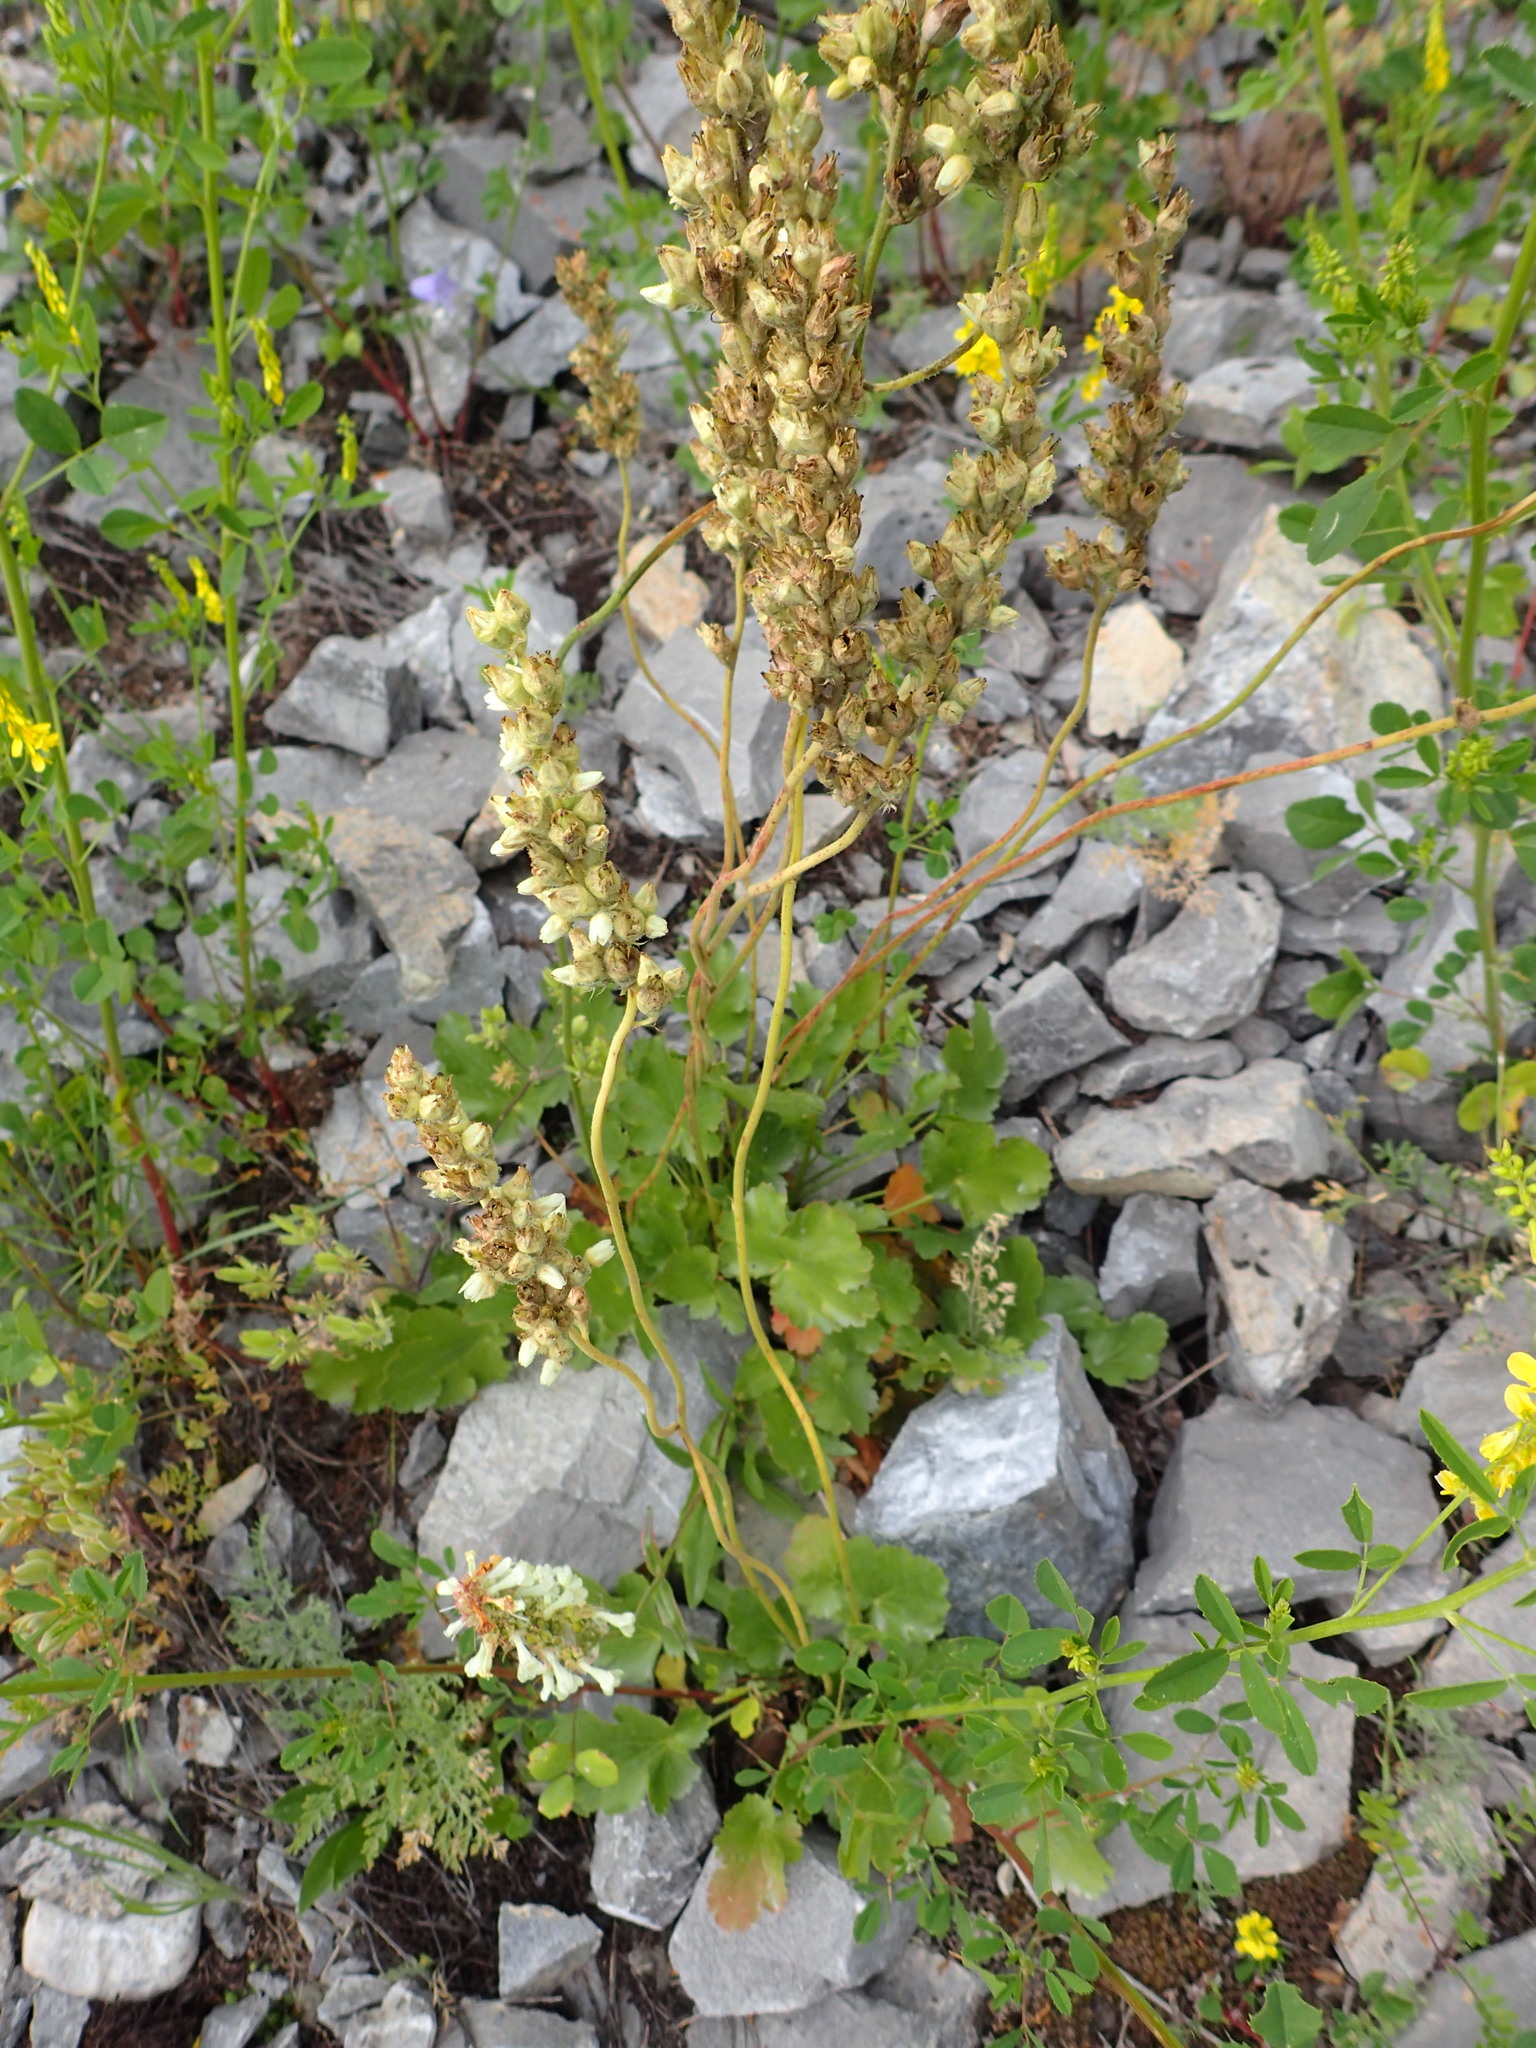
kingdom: Plantae
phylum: Tracheophyta
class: Magnoliopsida
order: Saxifragales
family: Saxifragaceae
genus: Heuchera
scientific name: Heuchera cylindrica
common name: Mat alumroot
